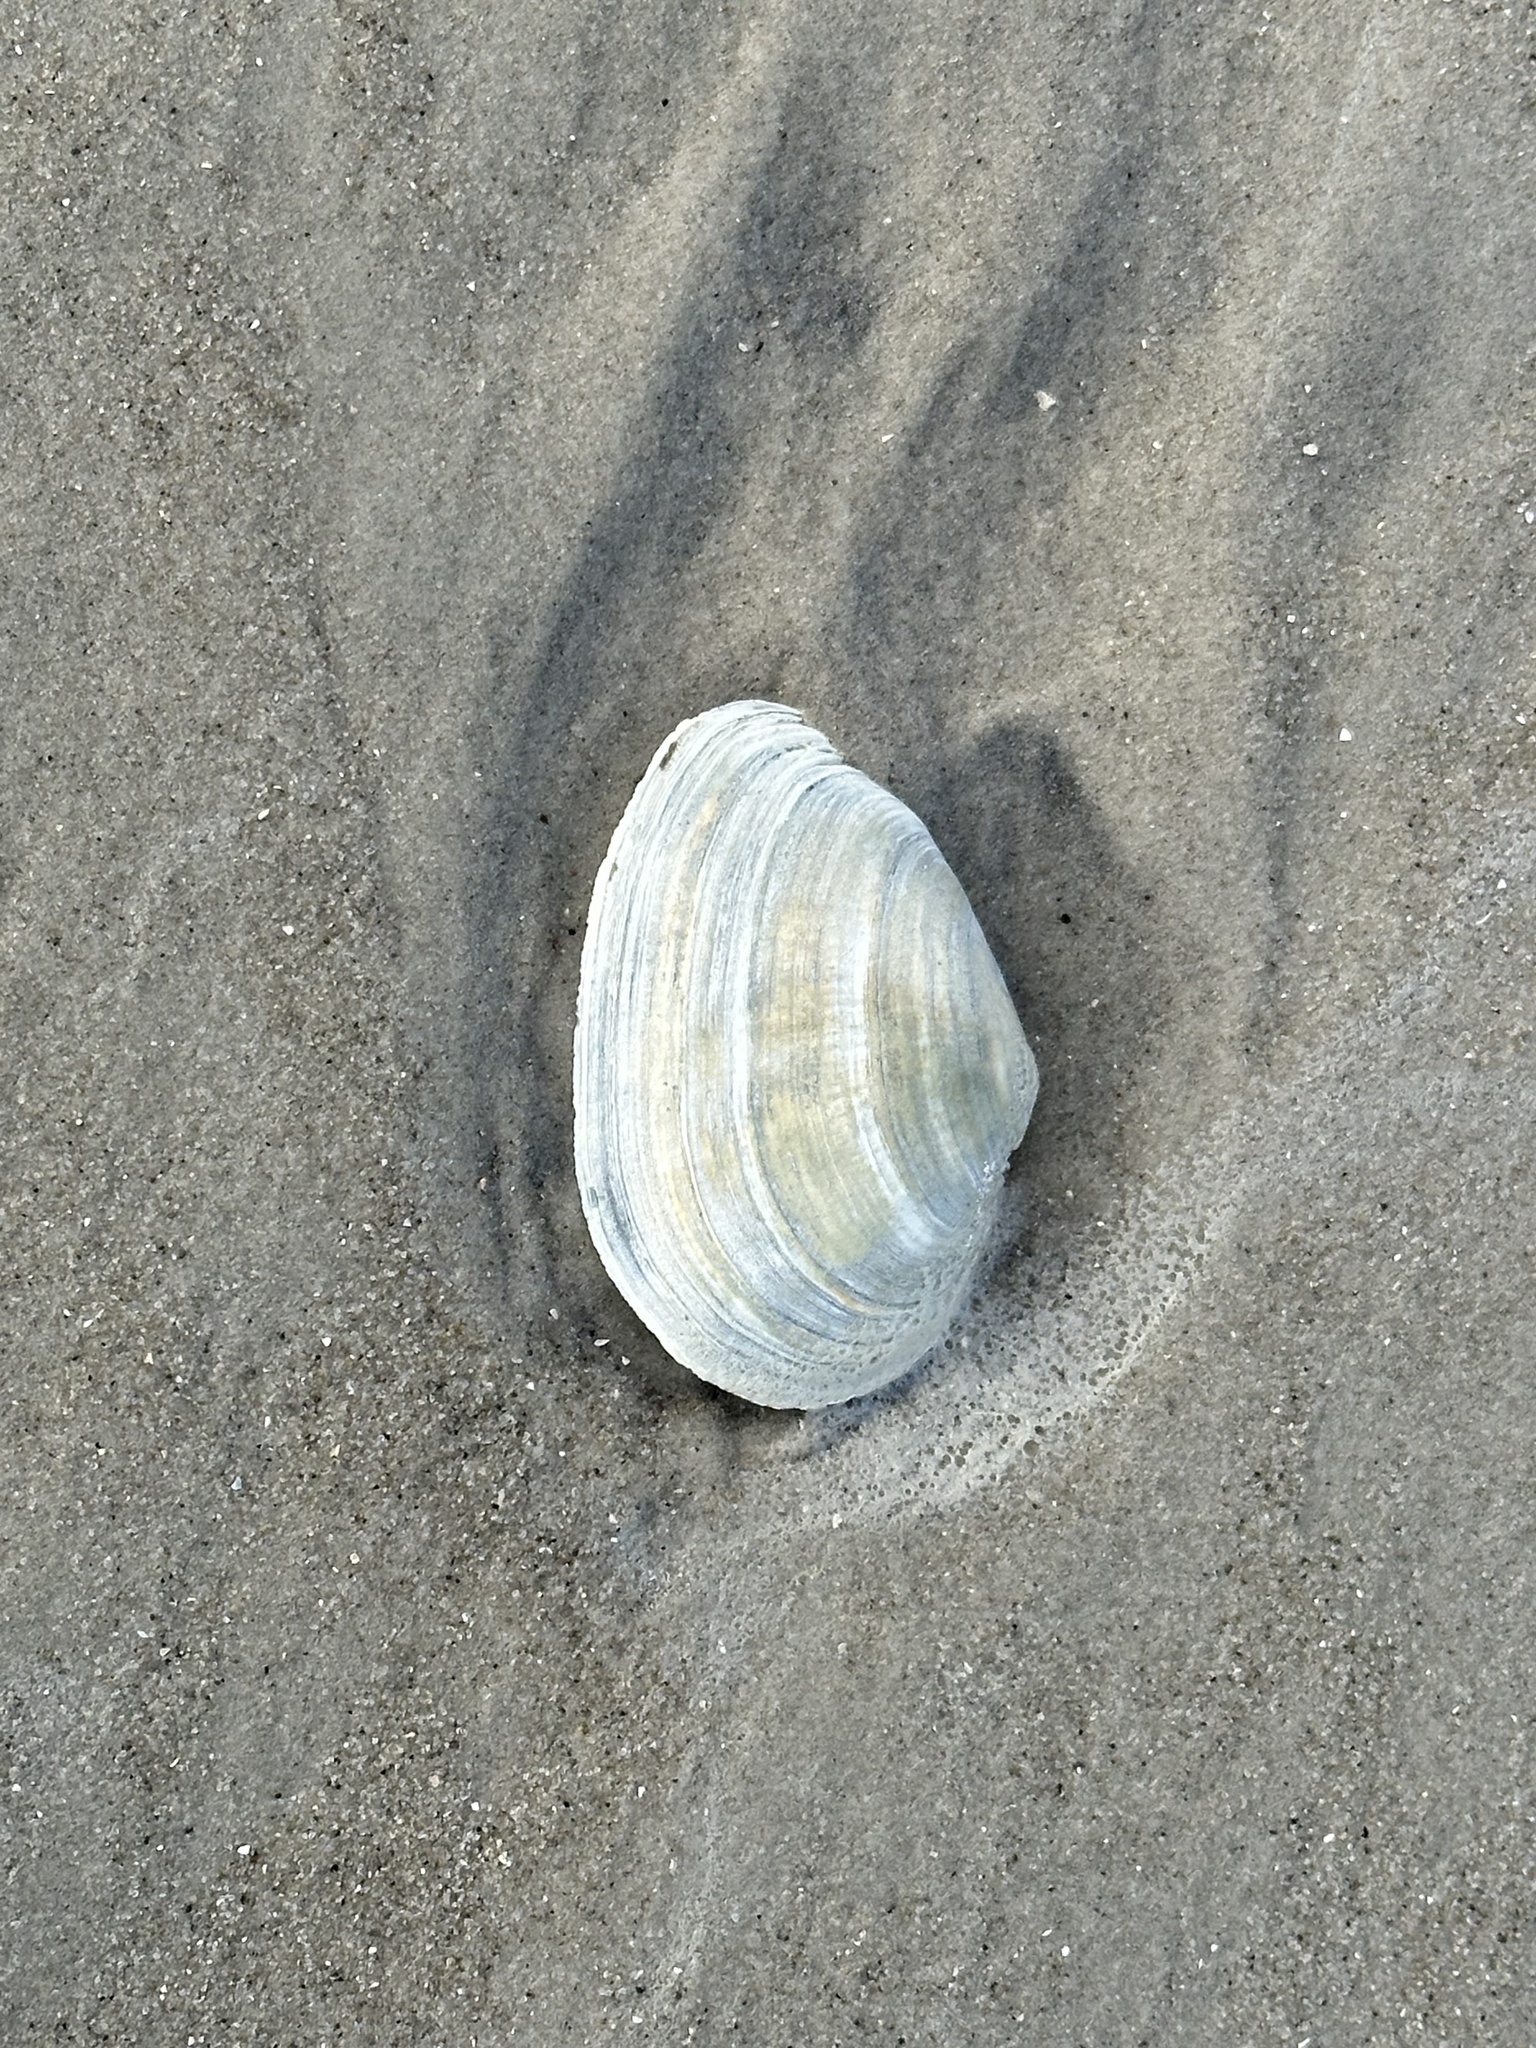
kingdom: Animalia
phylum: Mollusca
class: Bivalvia
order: Myida
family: Myidae
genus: Mya
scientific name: Mya arenaria
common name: Soft-shelled clam
